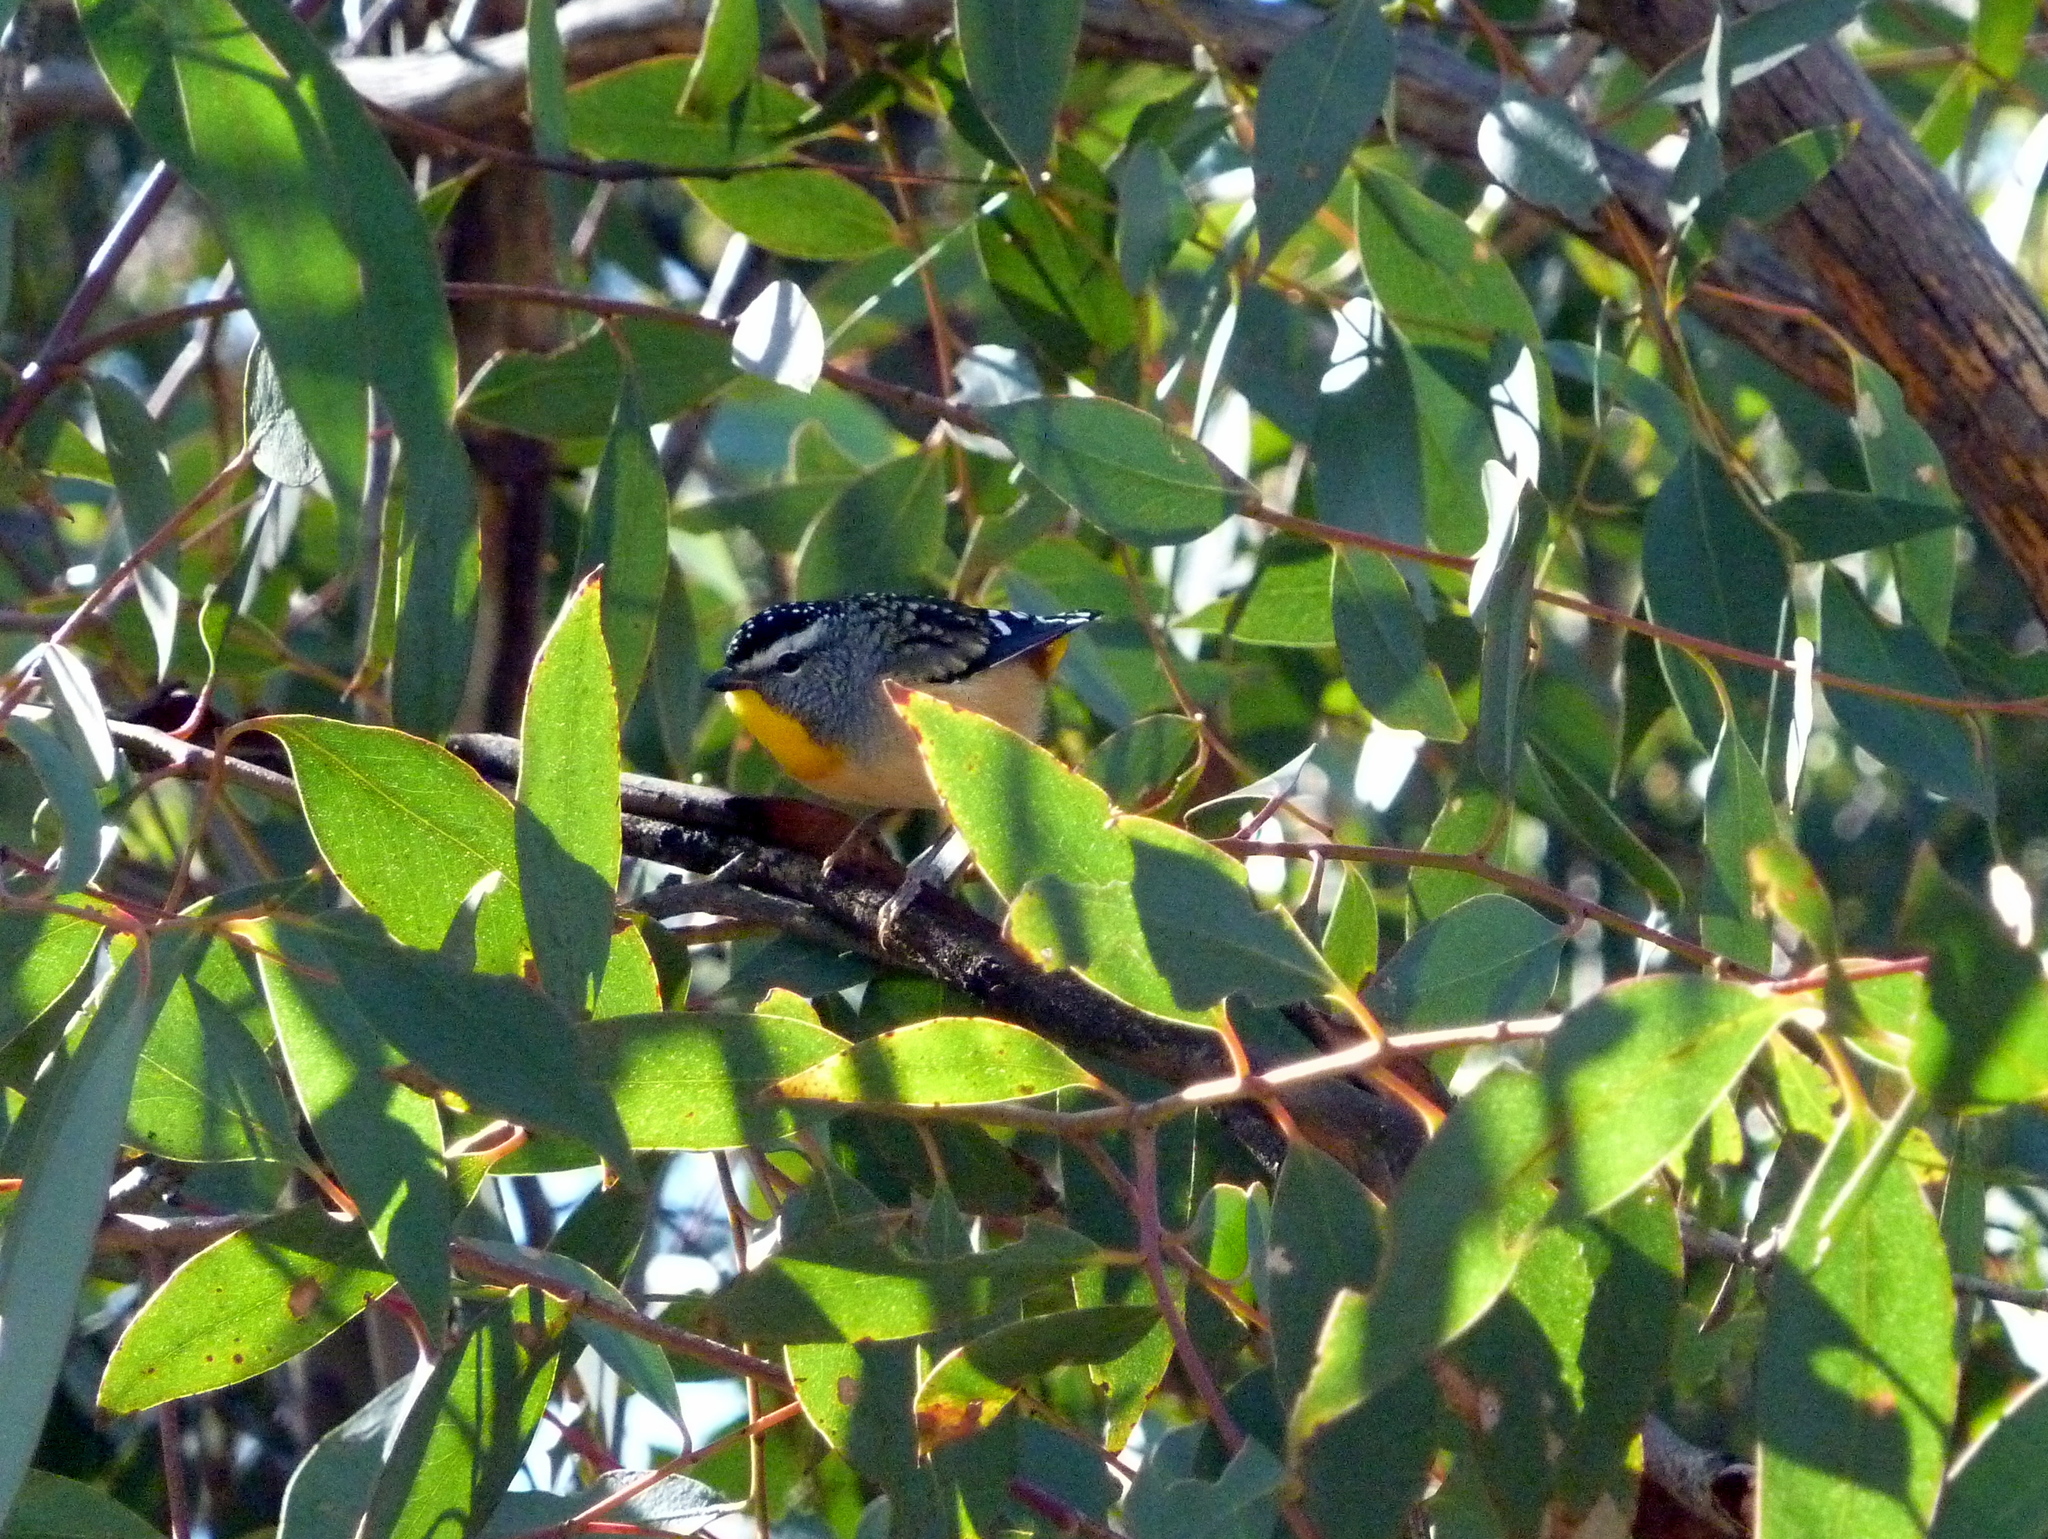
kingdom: Animalia
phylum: Chordata
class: Aves
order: Passeriformes
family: Pardalotidae
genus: Pardalotus
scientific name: Pardalotus punctatus
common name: Spotted pardalote
